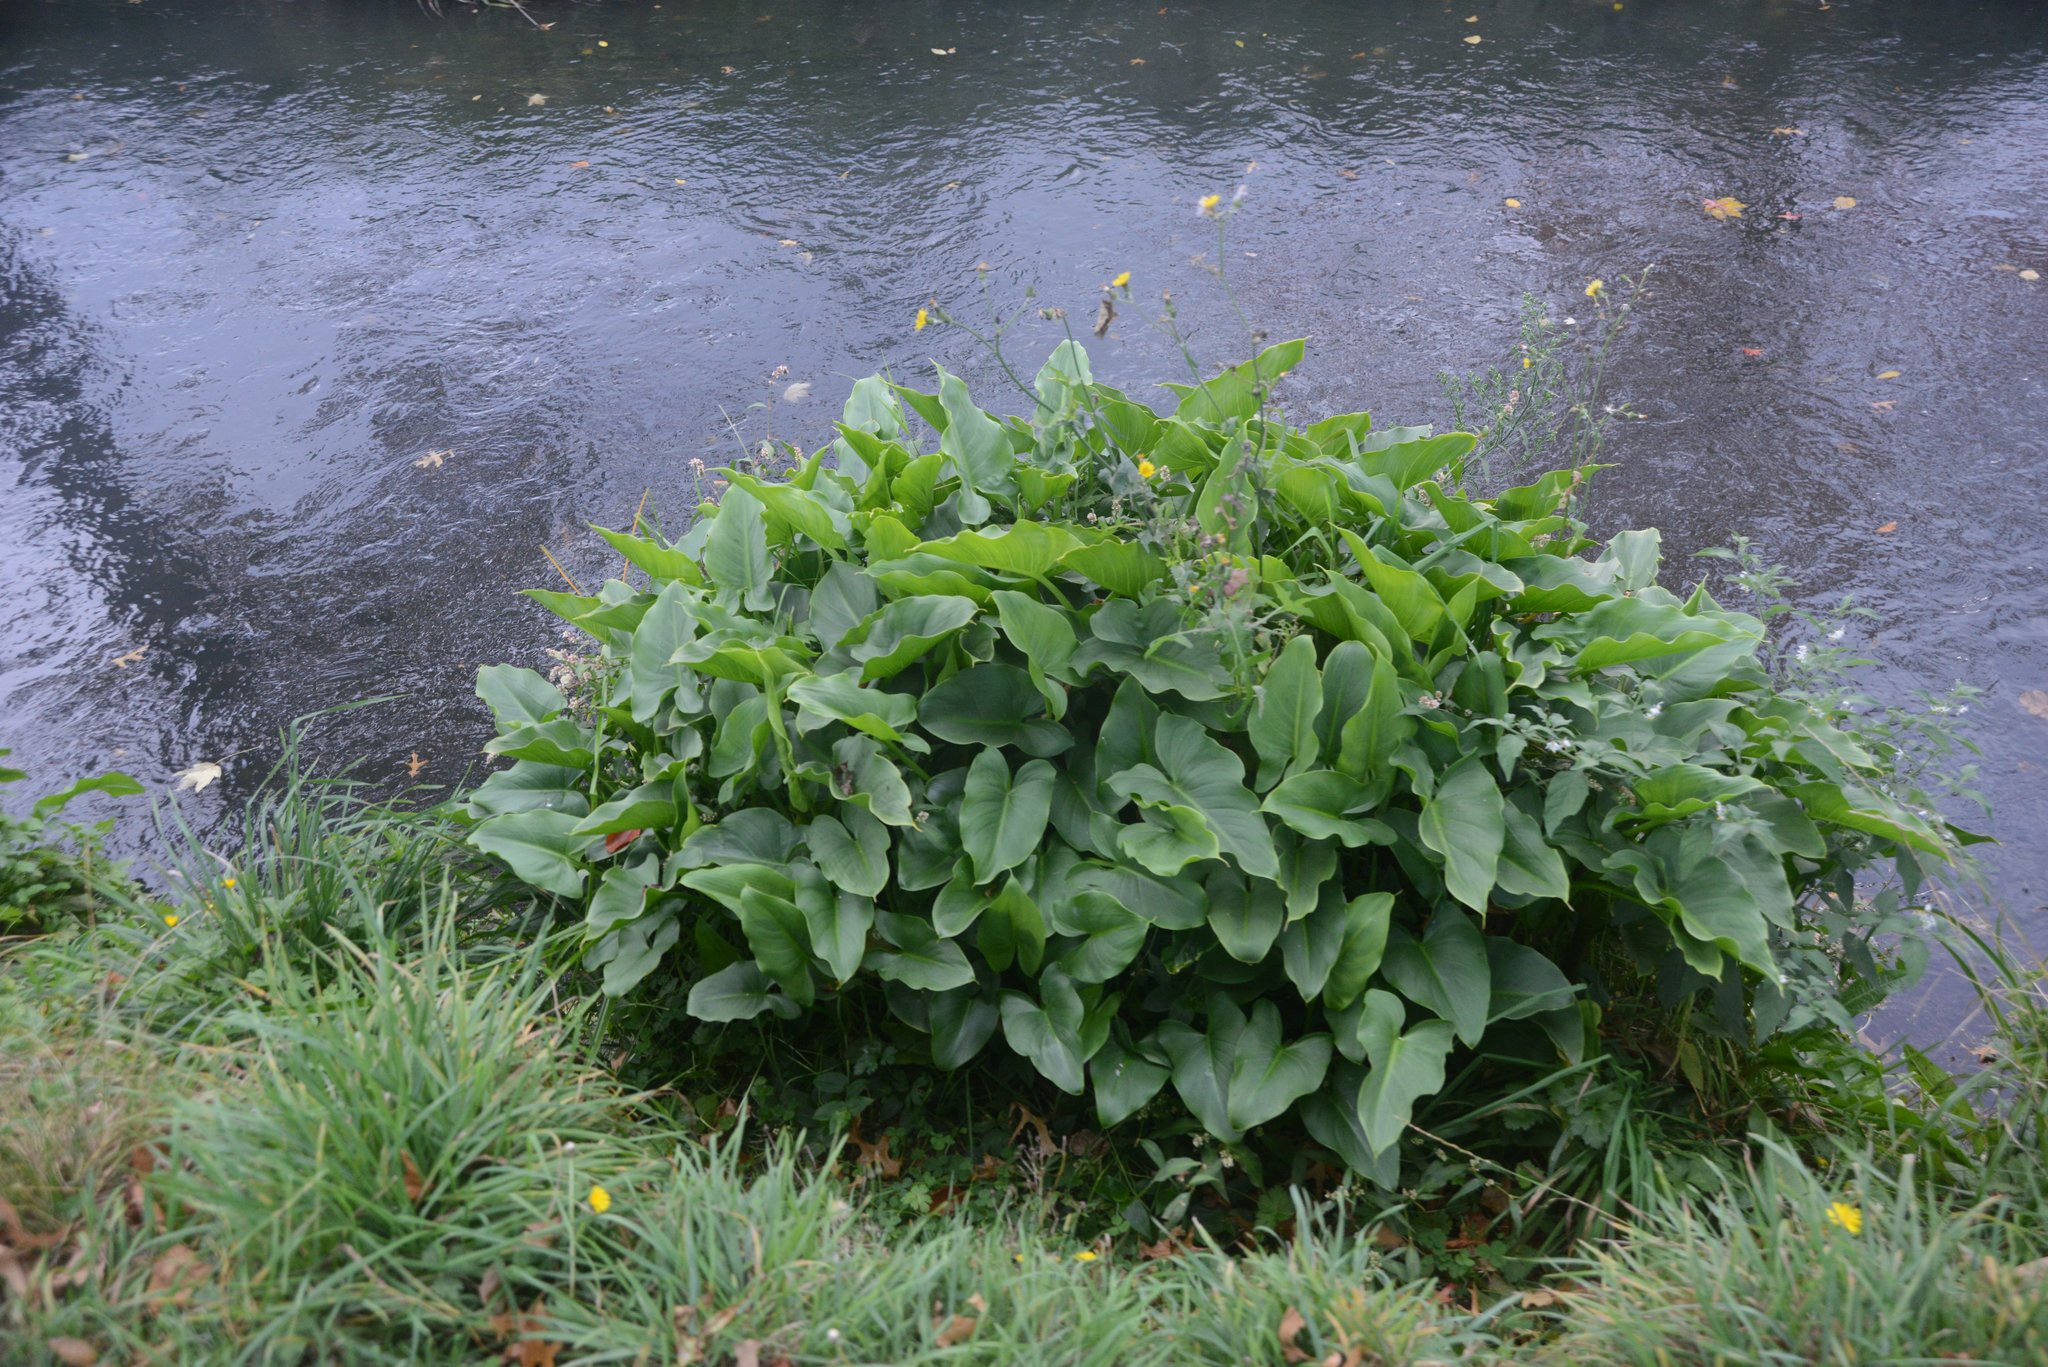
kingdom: Plantae
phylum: Tracheophyta
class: Liliopsida
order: Alismatales
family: Araceae
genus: Zantedeschia
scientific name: Zantedeschia aethiopica
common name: Altar-lily
